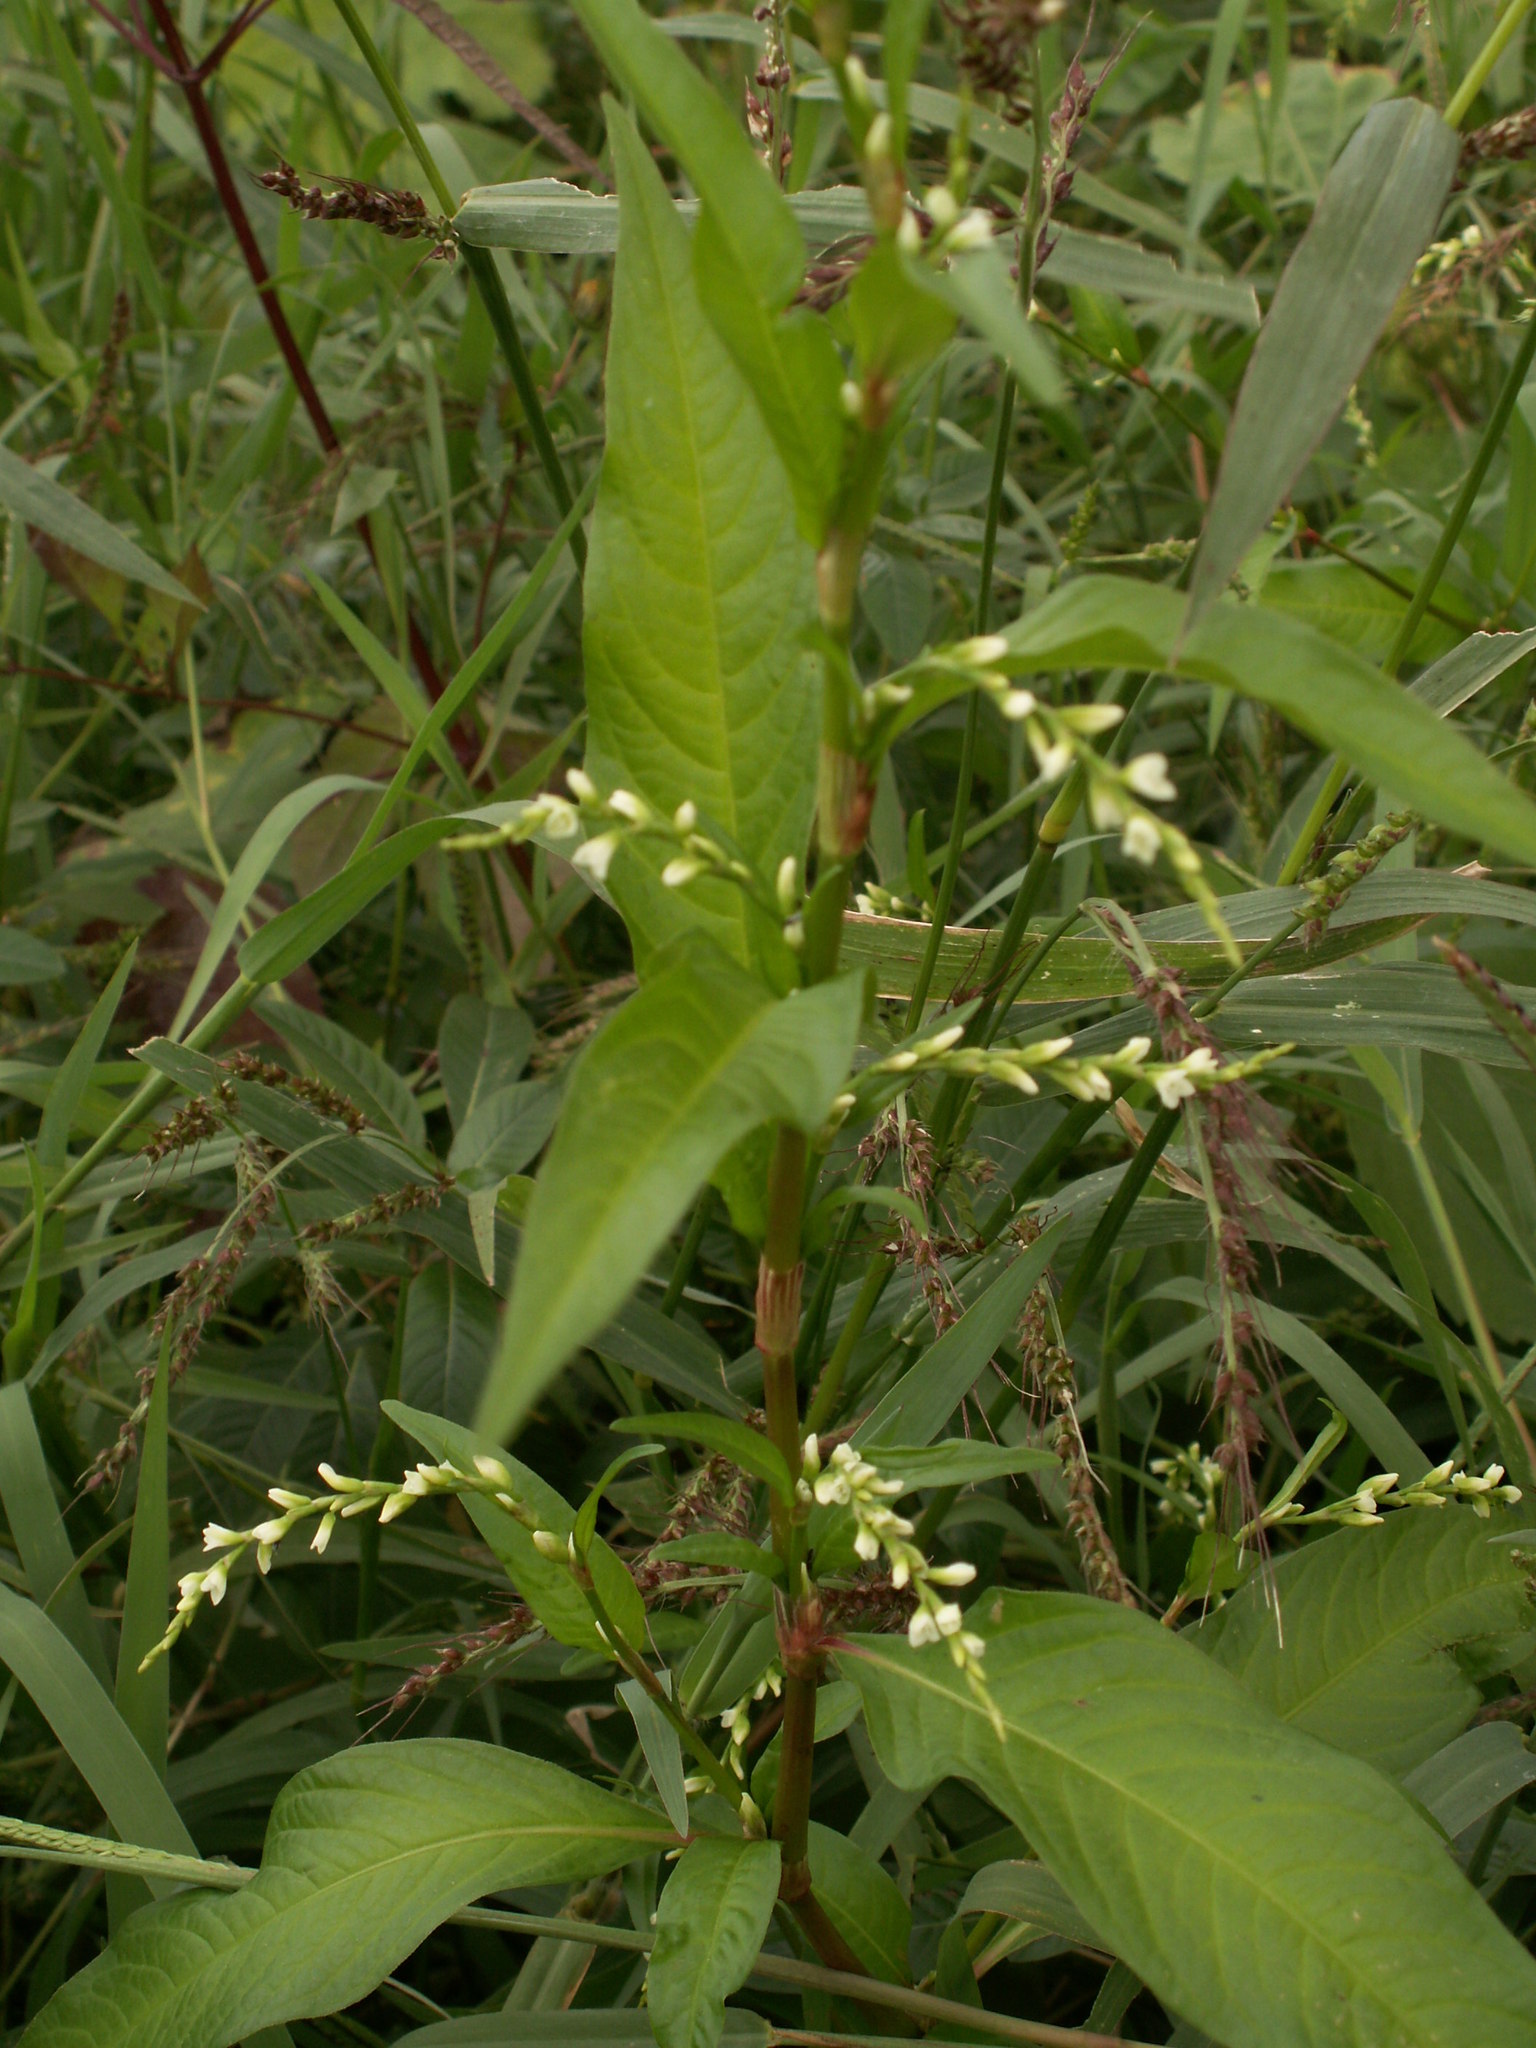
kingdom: Plantae
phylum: Tracheophyta
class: Magnoliopsida
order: Caryophyllales
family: Polygonaceae
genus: Persicaria
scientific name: Persicaria hydropiper
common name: Water-pepper
